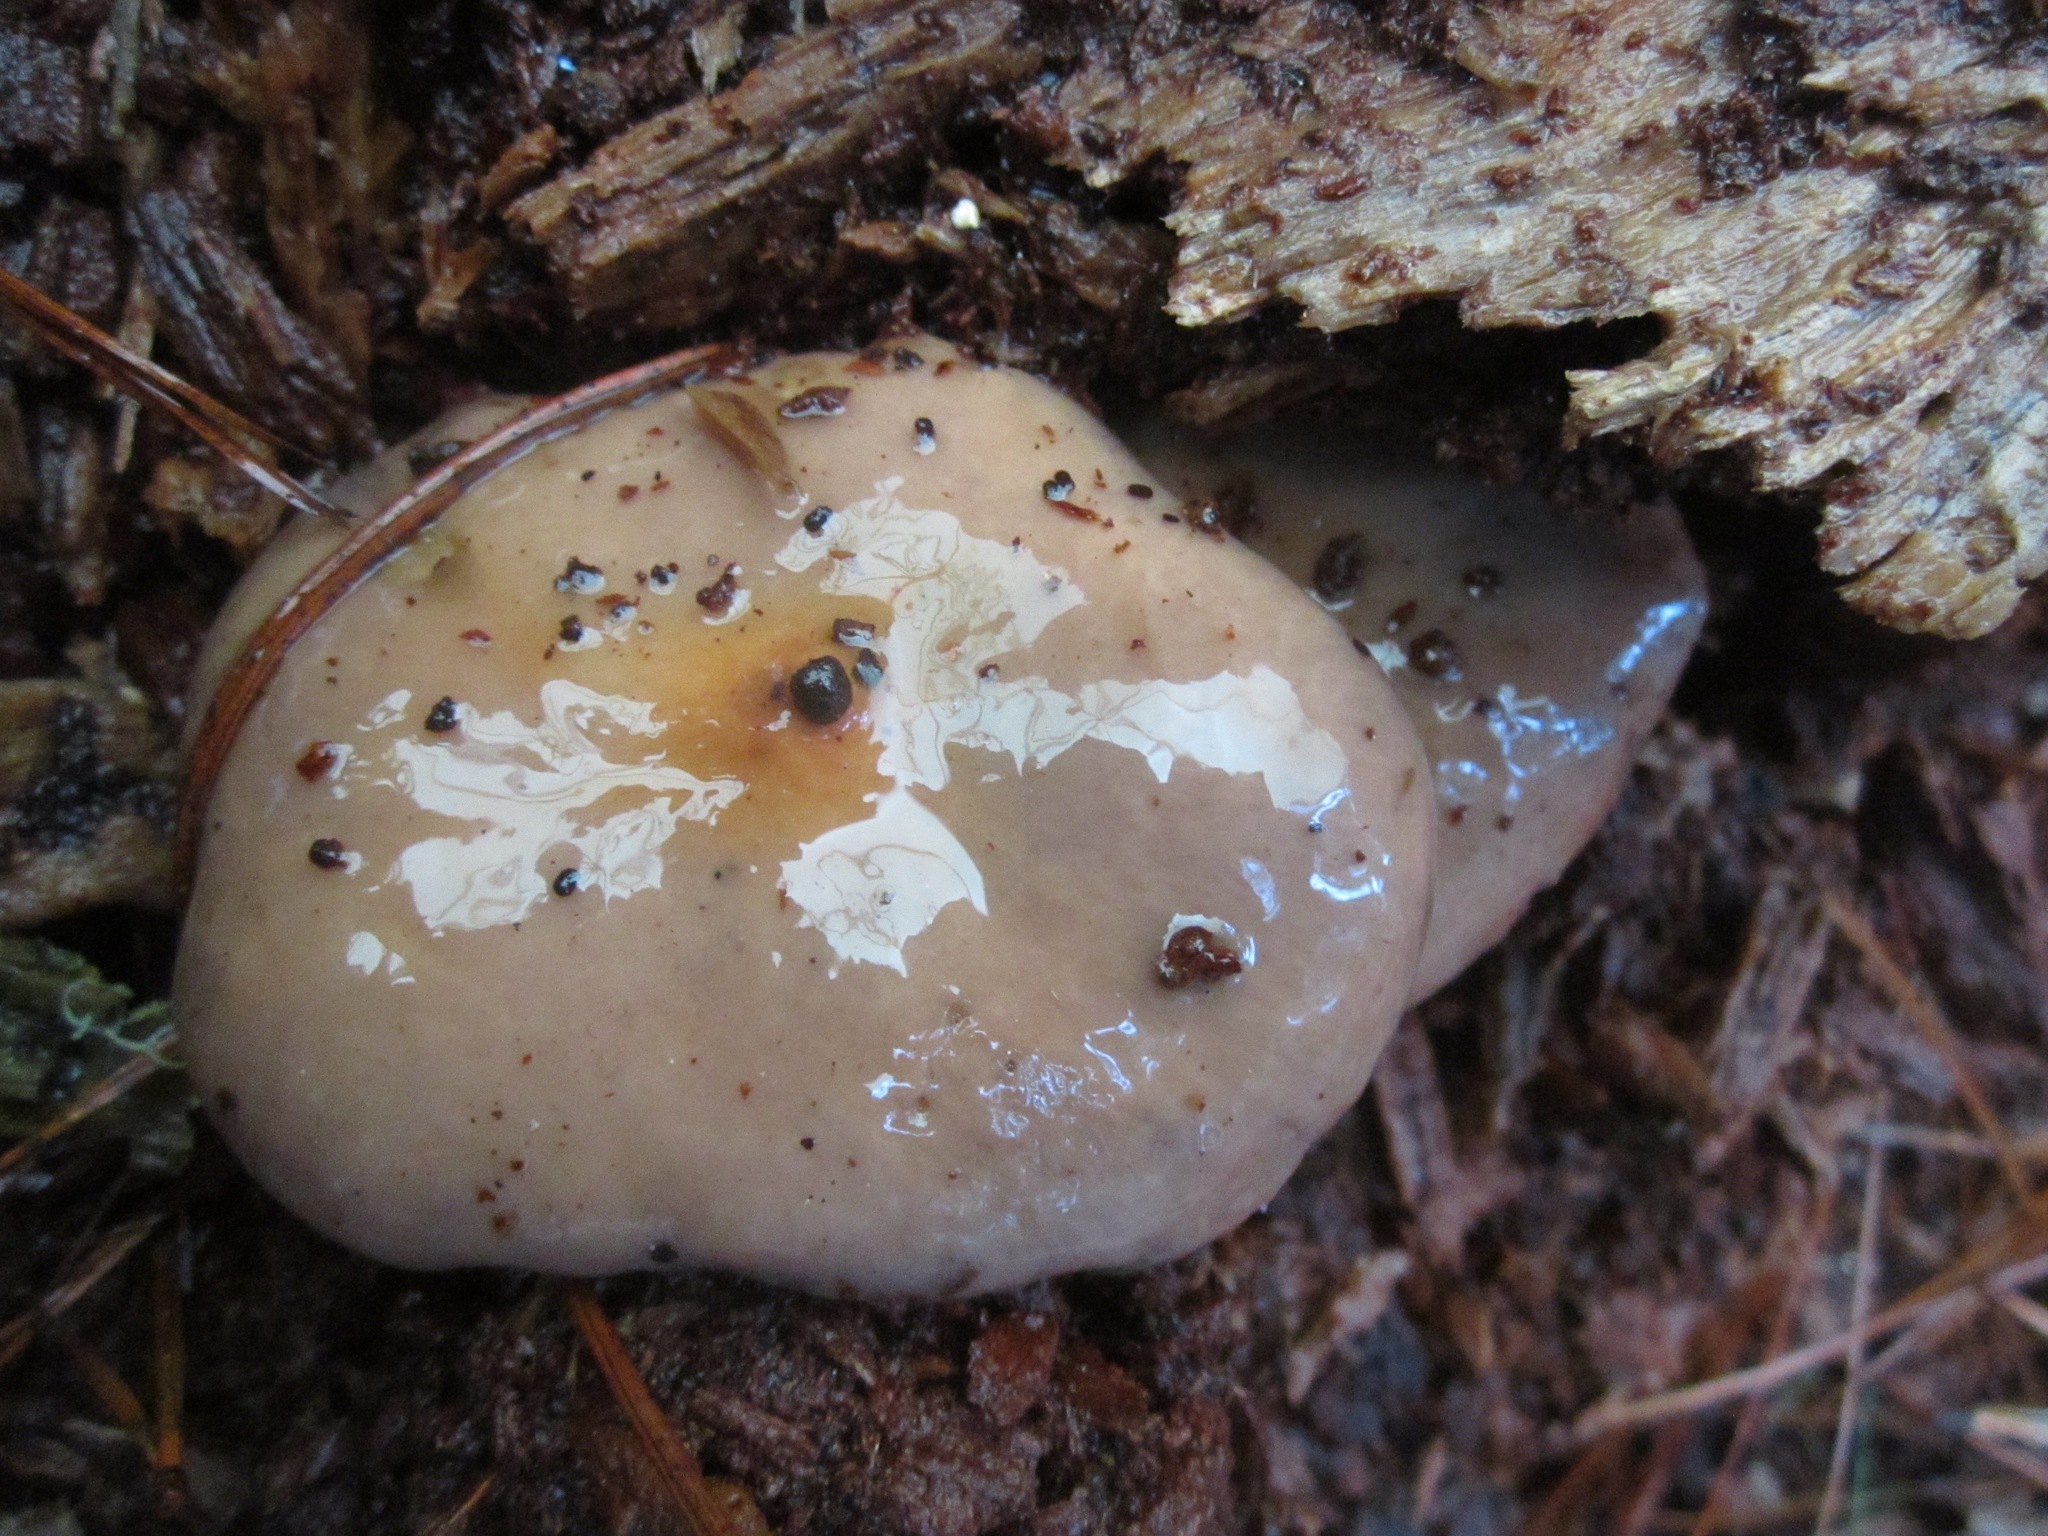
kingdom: Fungi
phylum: Basidiomycota
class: Agaricomycetes
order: Boletales
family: Gomphidiaceae
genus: Chroogomphus
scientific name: Chroogomphus ochraceus
